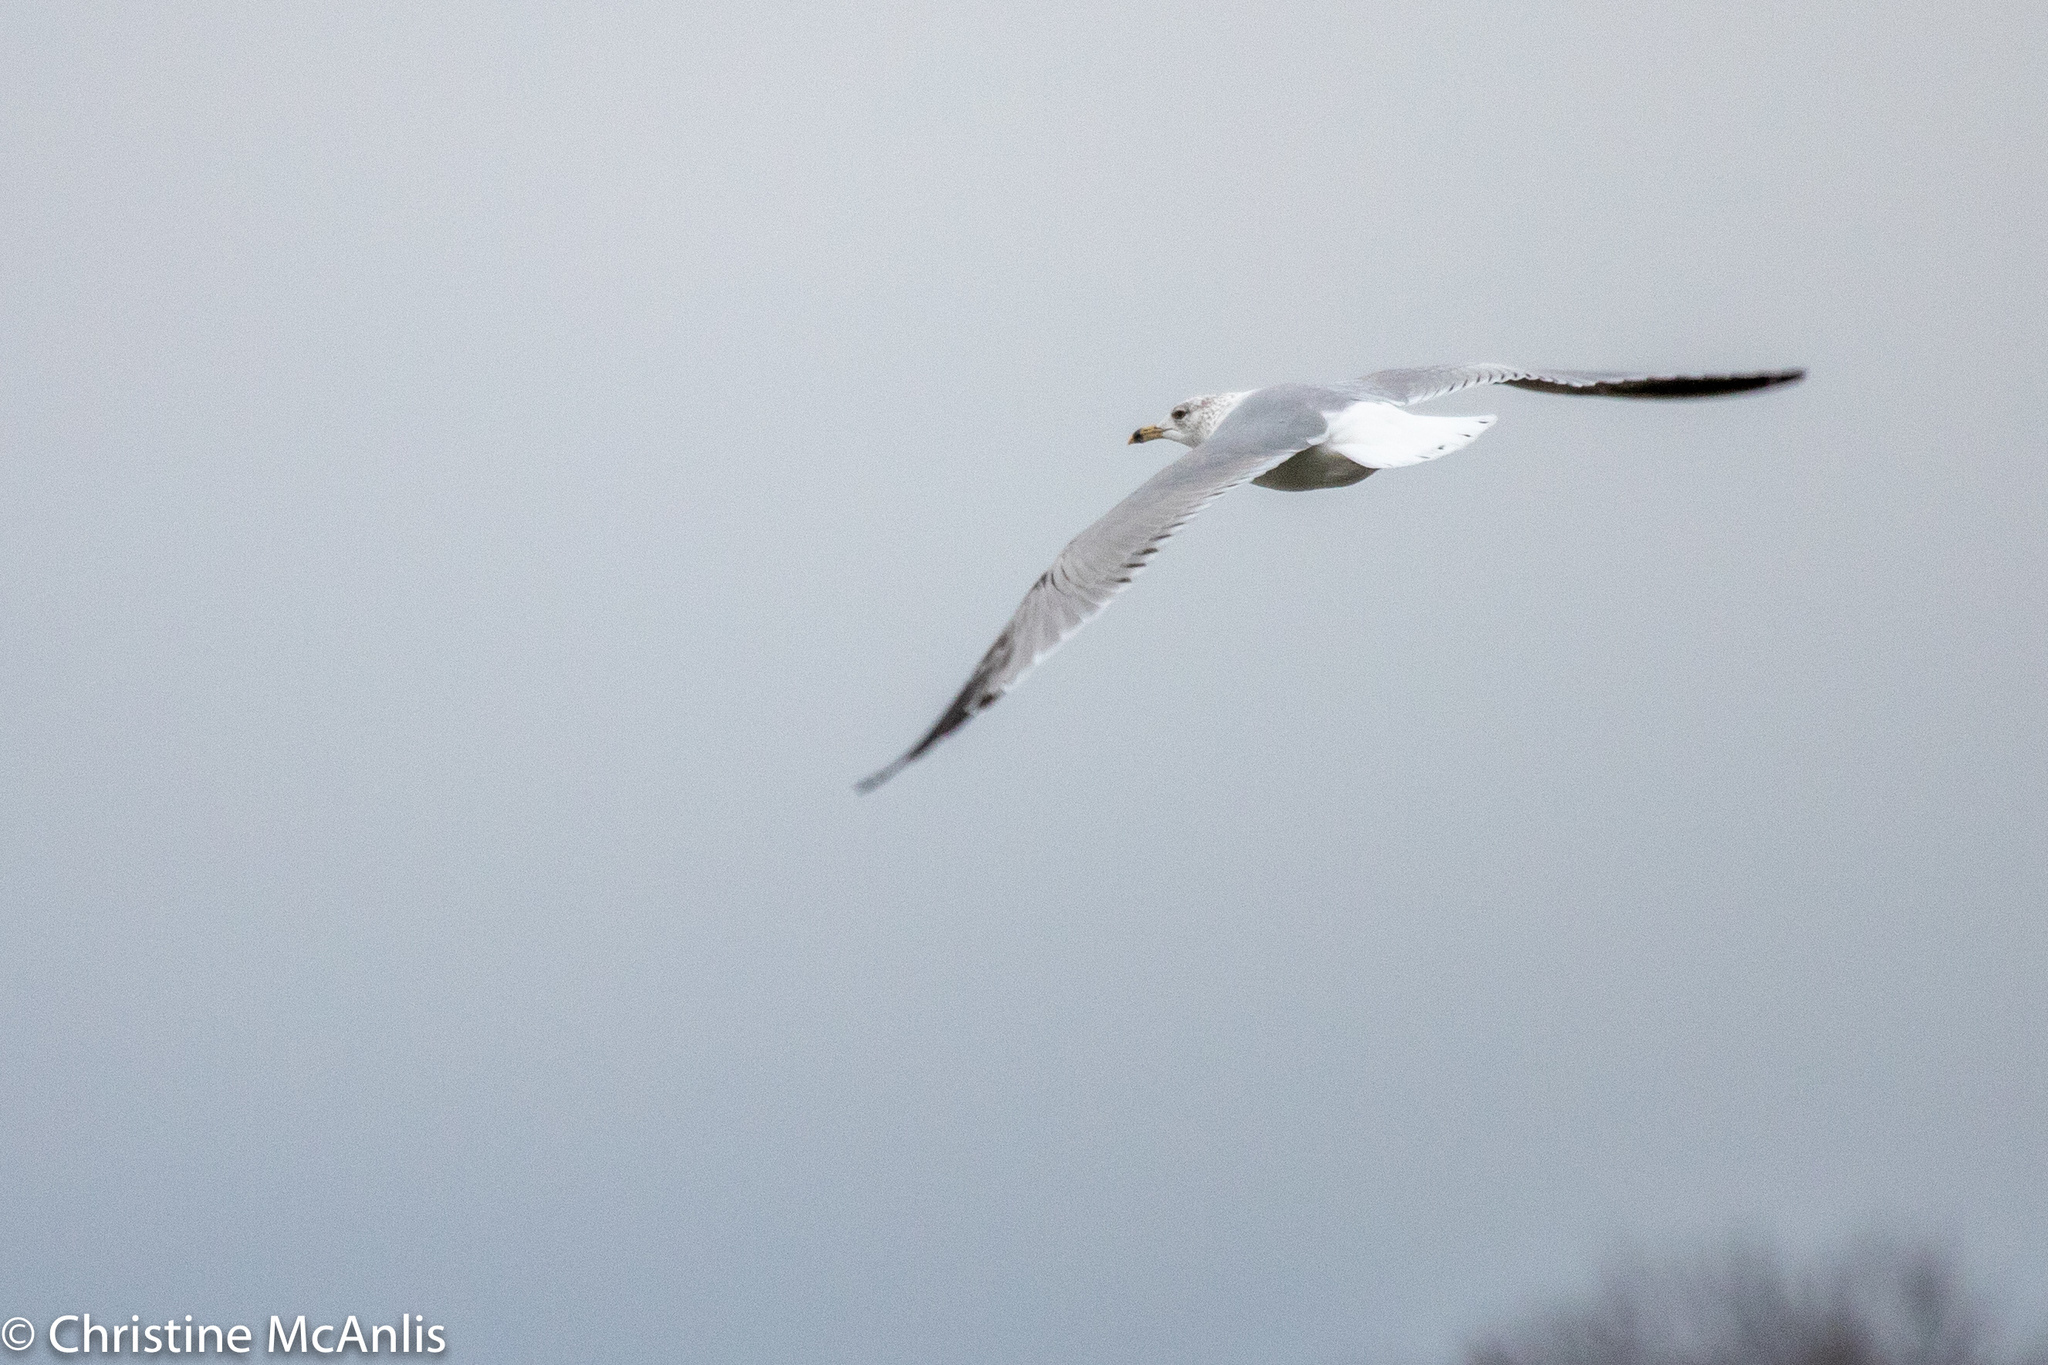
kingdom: Animalia
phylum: Chordata
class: Aves
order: Charadriiformes
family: Laridae
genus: Larus
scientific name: Larus delawarensis
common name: Ring-billed gull
